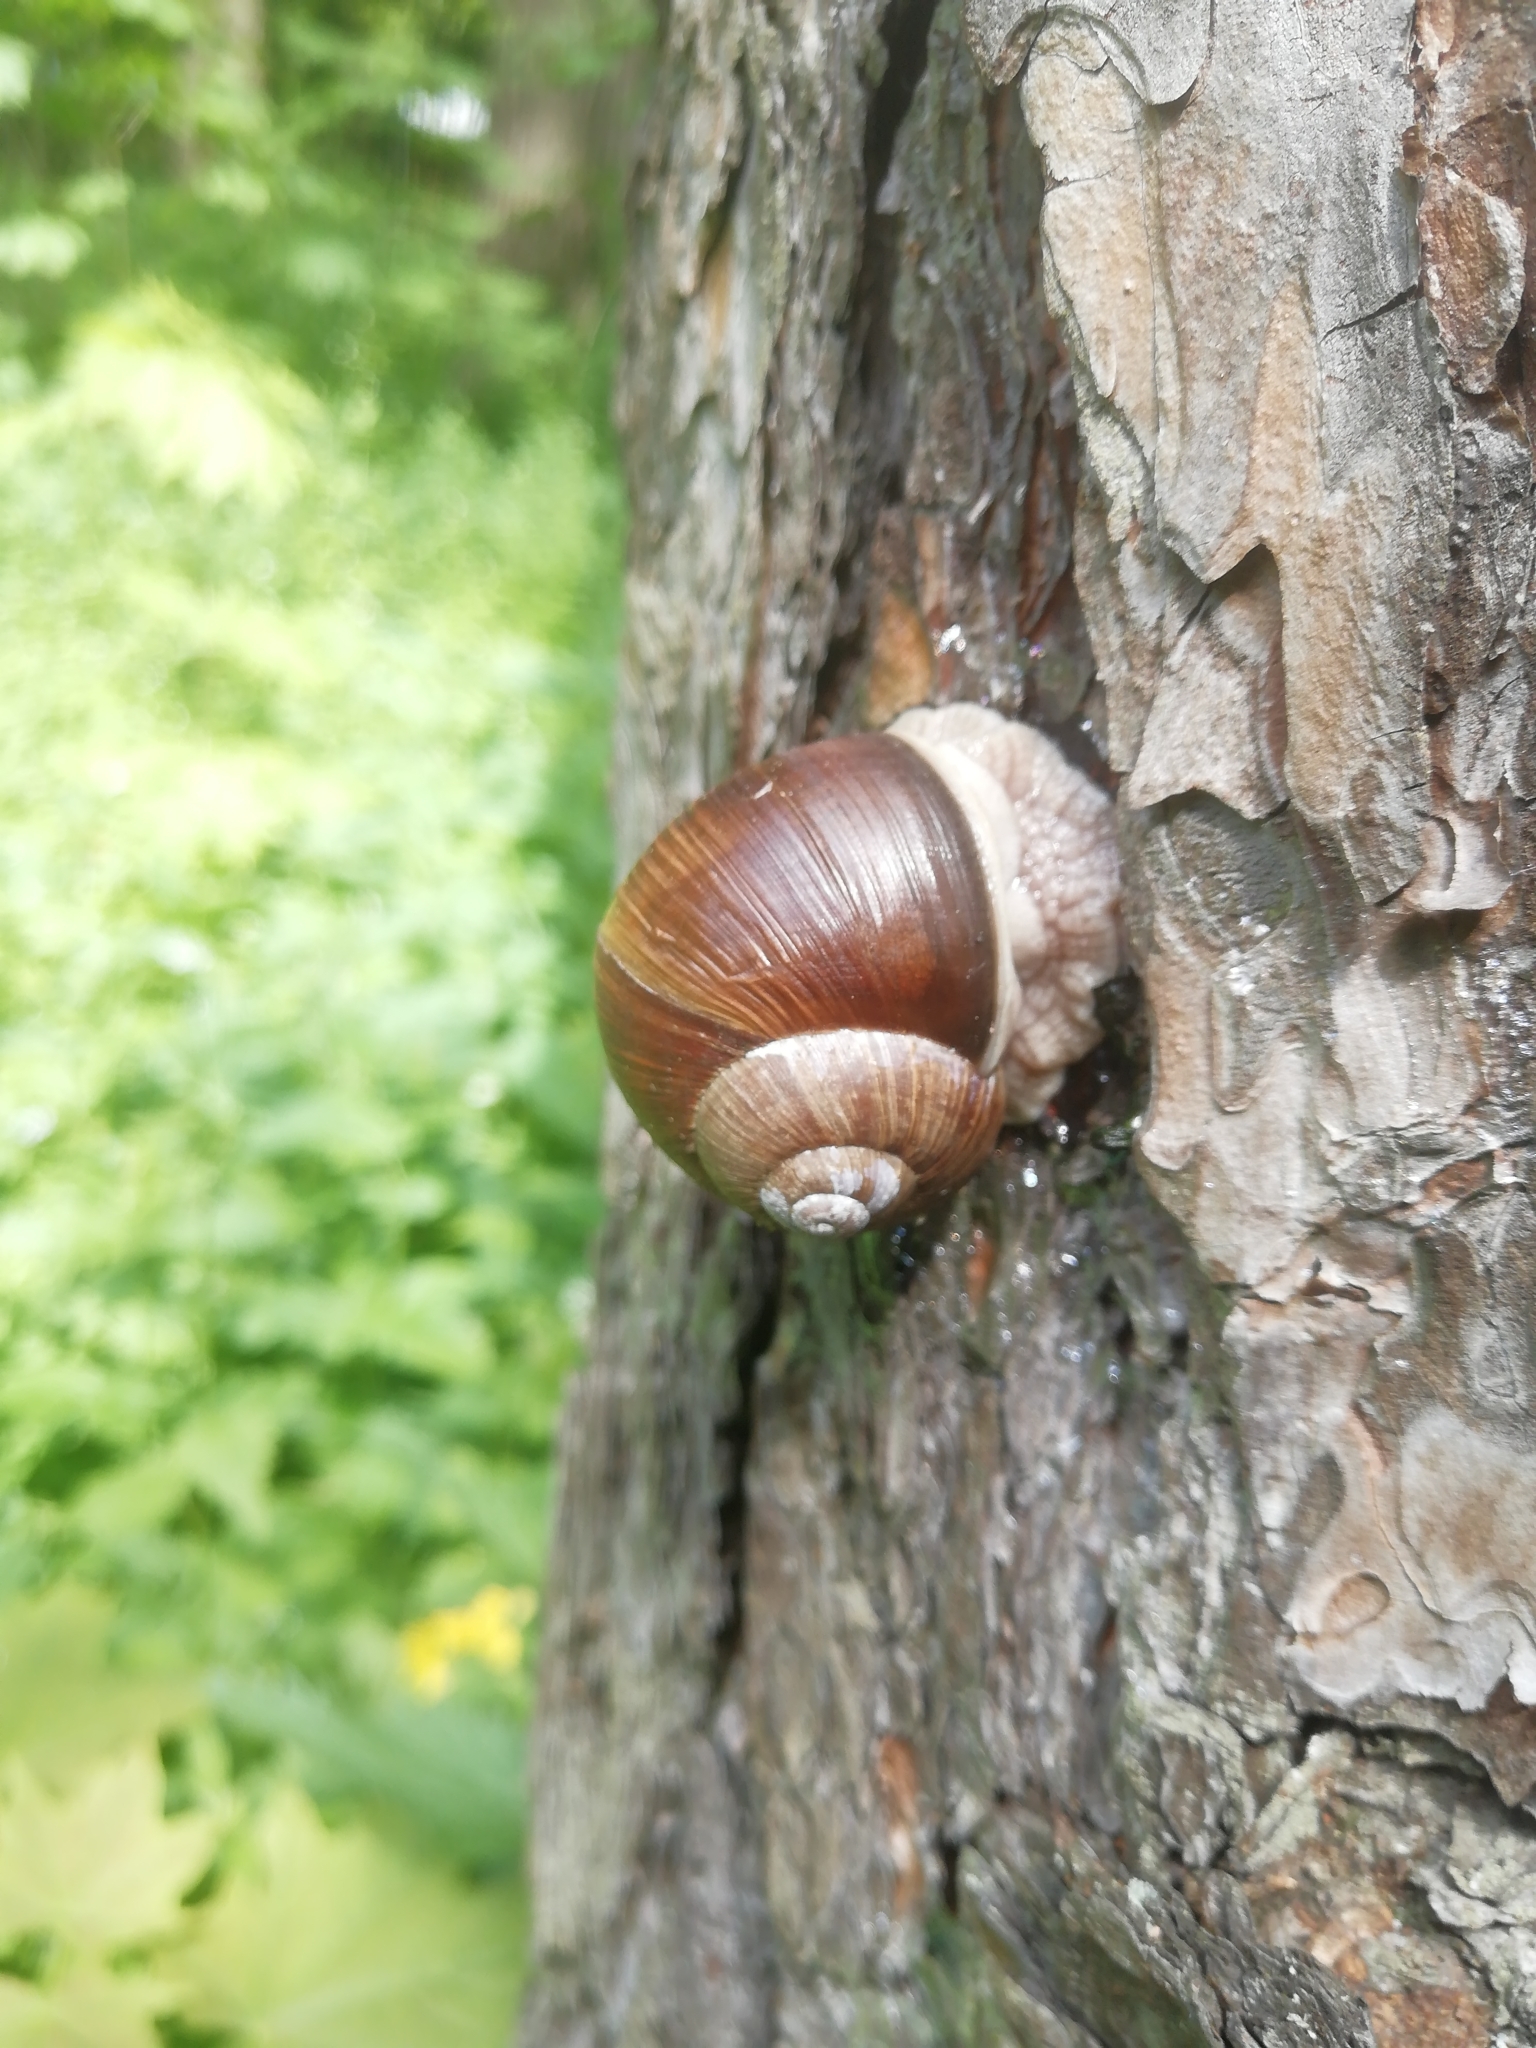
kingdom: Animalia
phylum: Mollusca
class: Gastropoda
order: Stylommatophora
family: Helicidae
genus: Helix
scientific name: Helix pomatia
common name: Roman snail
